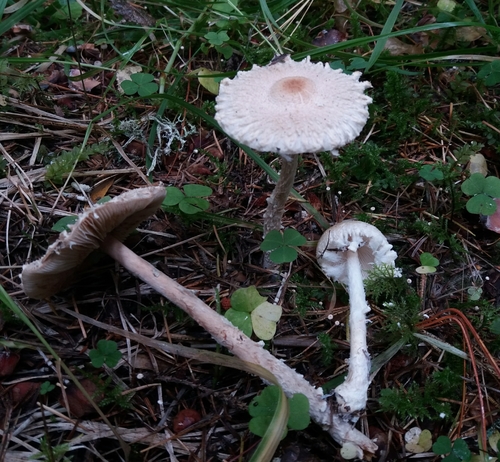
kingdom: Fungi
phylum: Basidiomycota
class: Agaricomycetes
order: Agaricales
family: Agaricaceae
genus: Lepiota
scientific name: Lepiota clypeolaria
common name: Shield dapperling
